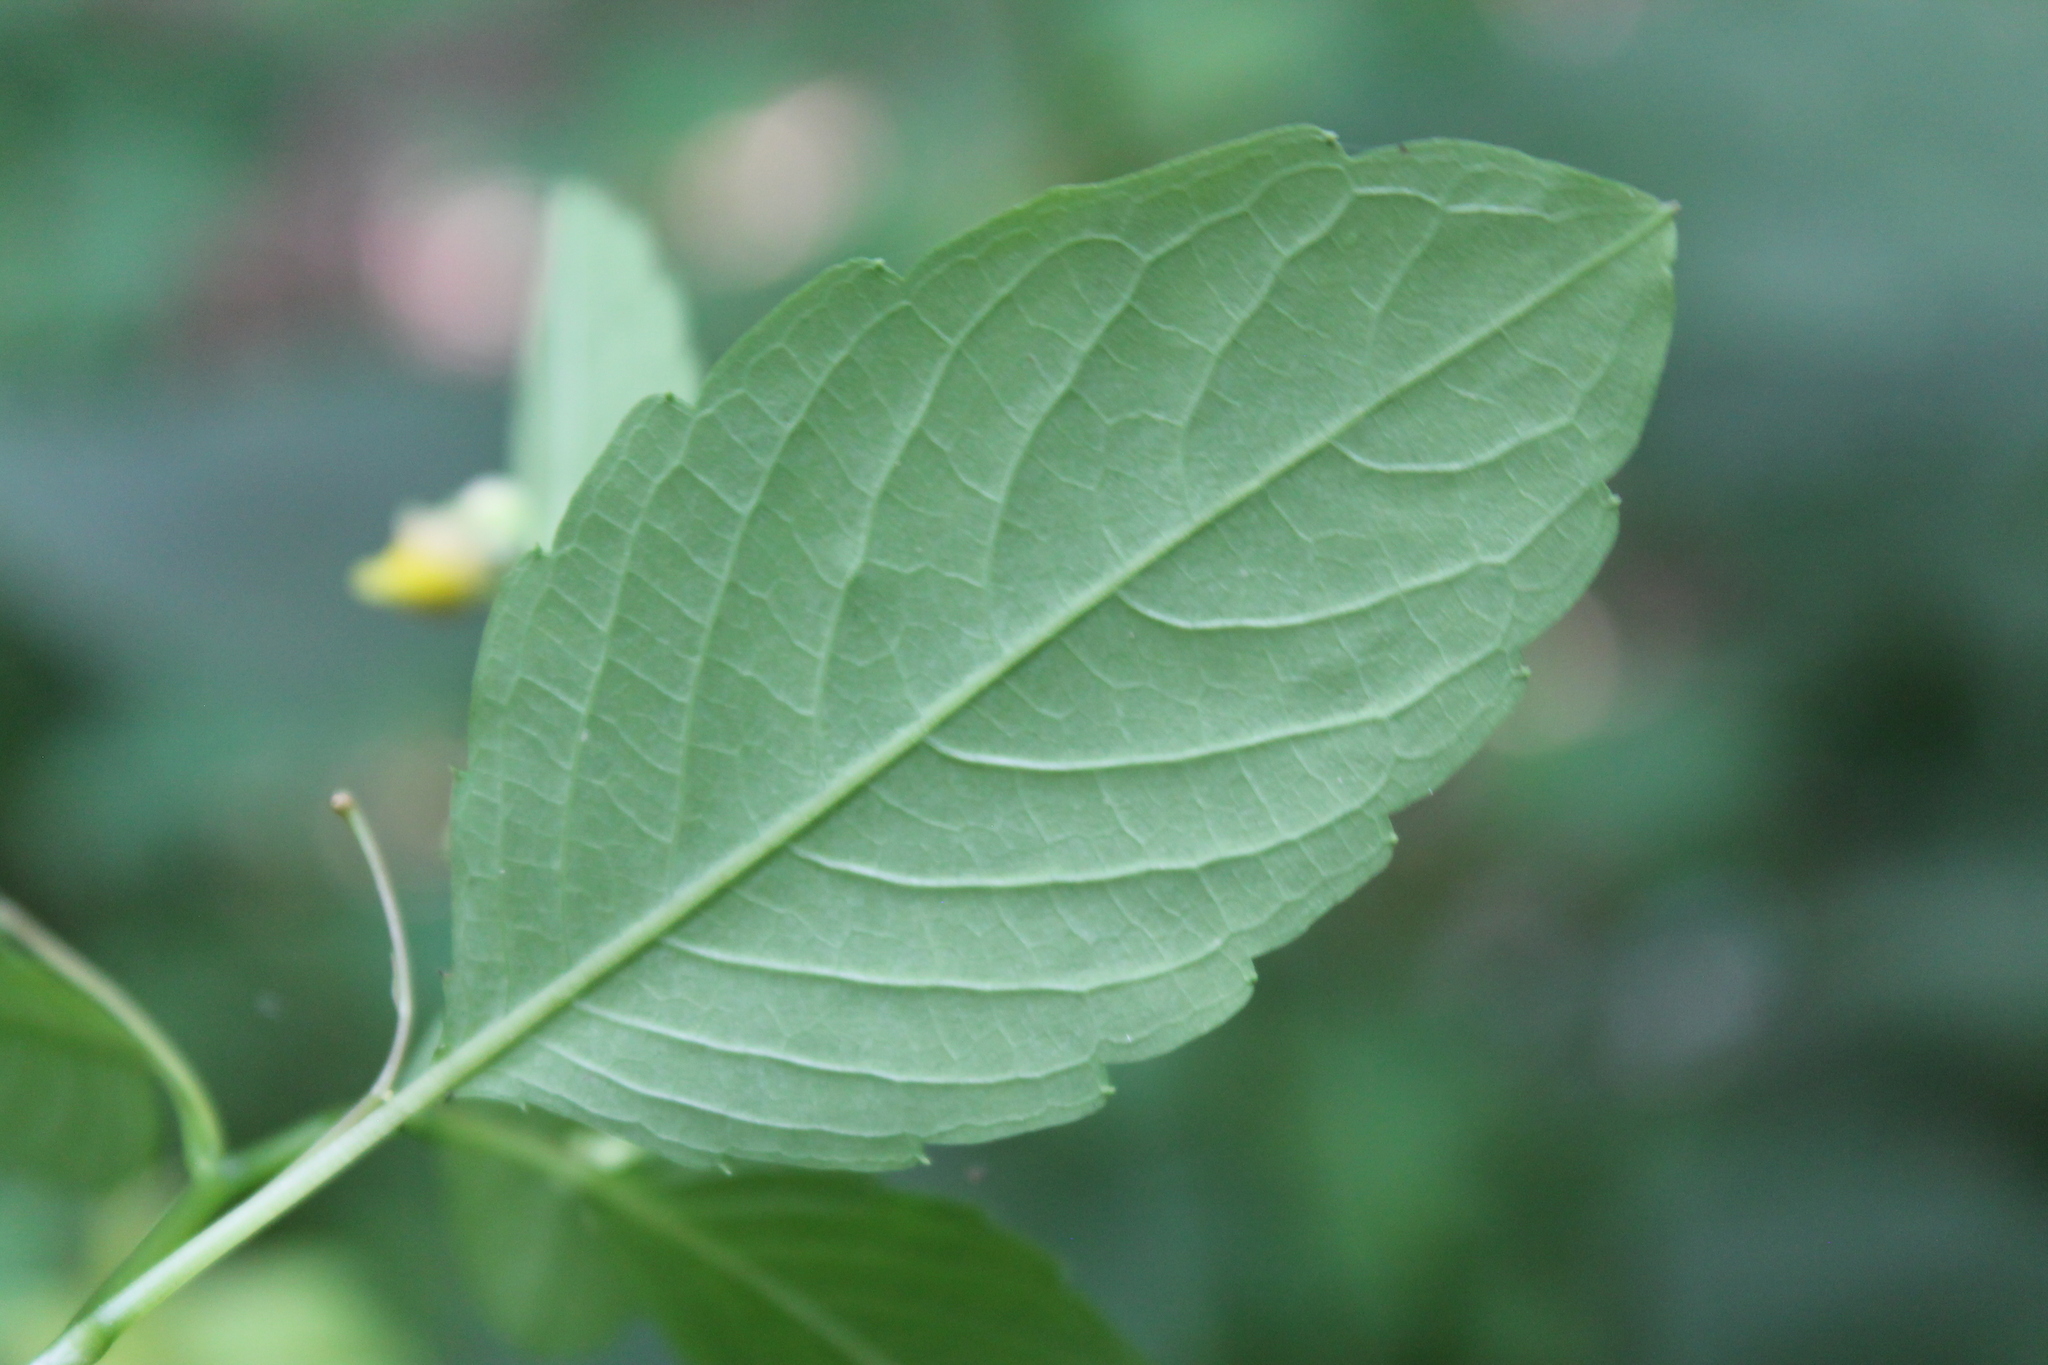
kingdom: Plantae
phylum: Tracheophyta
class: Magnoliopsida
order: Ericales
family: Balsaminaceae
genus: Impatiens
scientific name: Impatiens capensis
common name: Orange balsam
